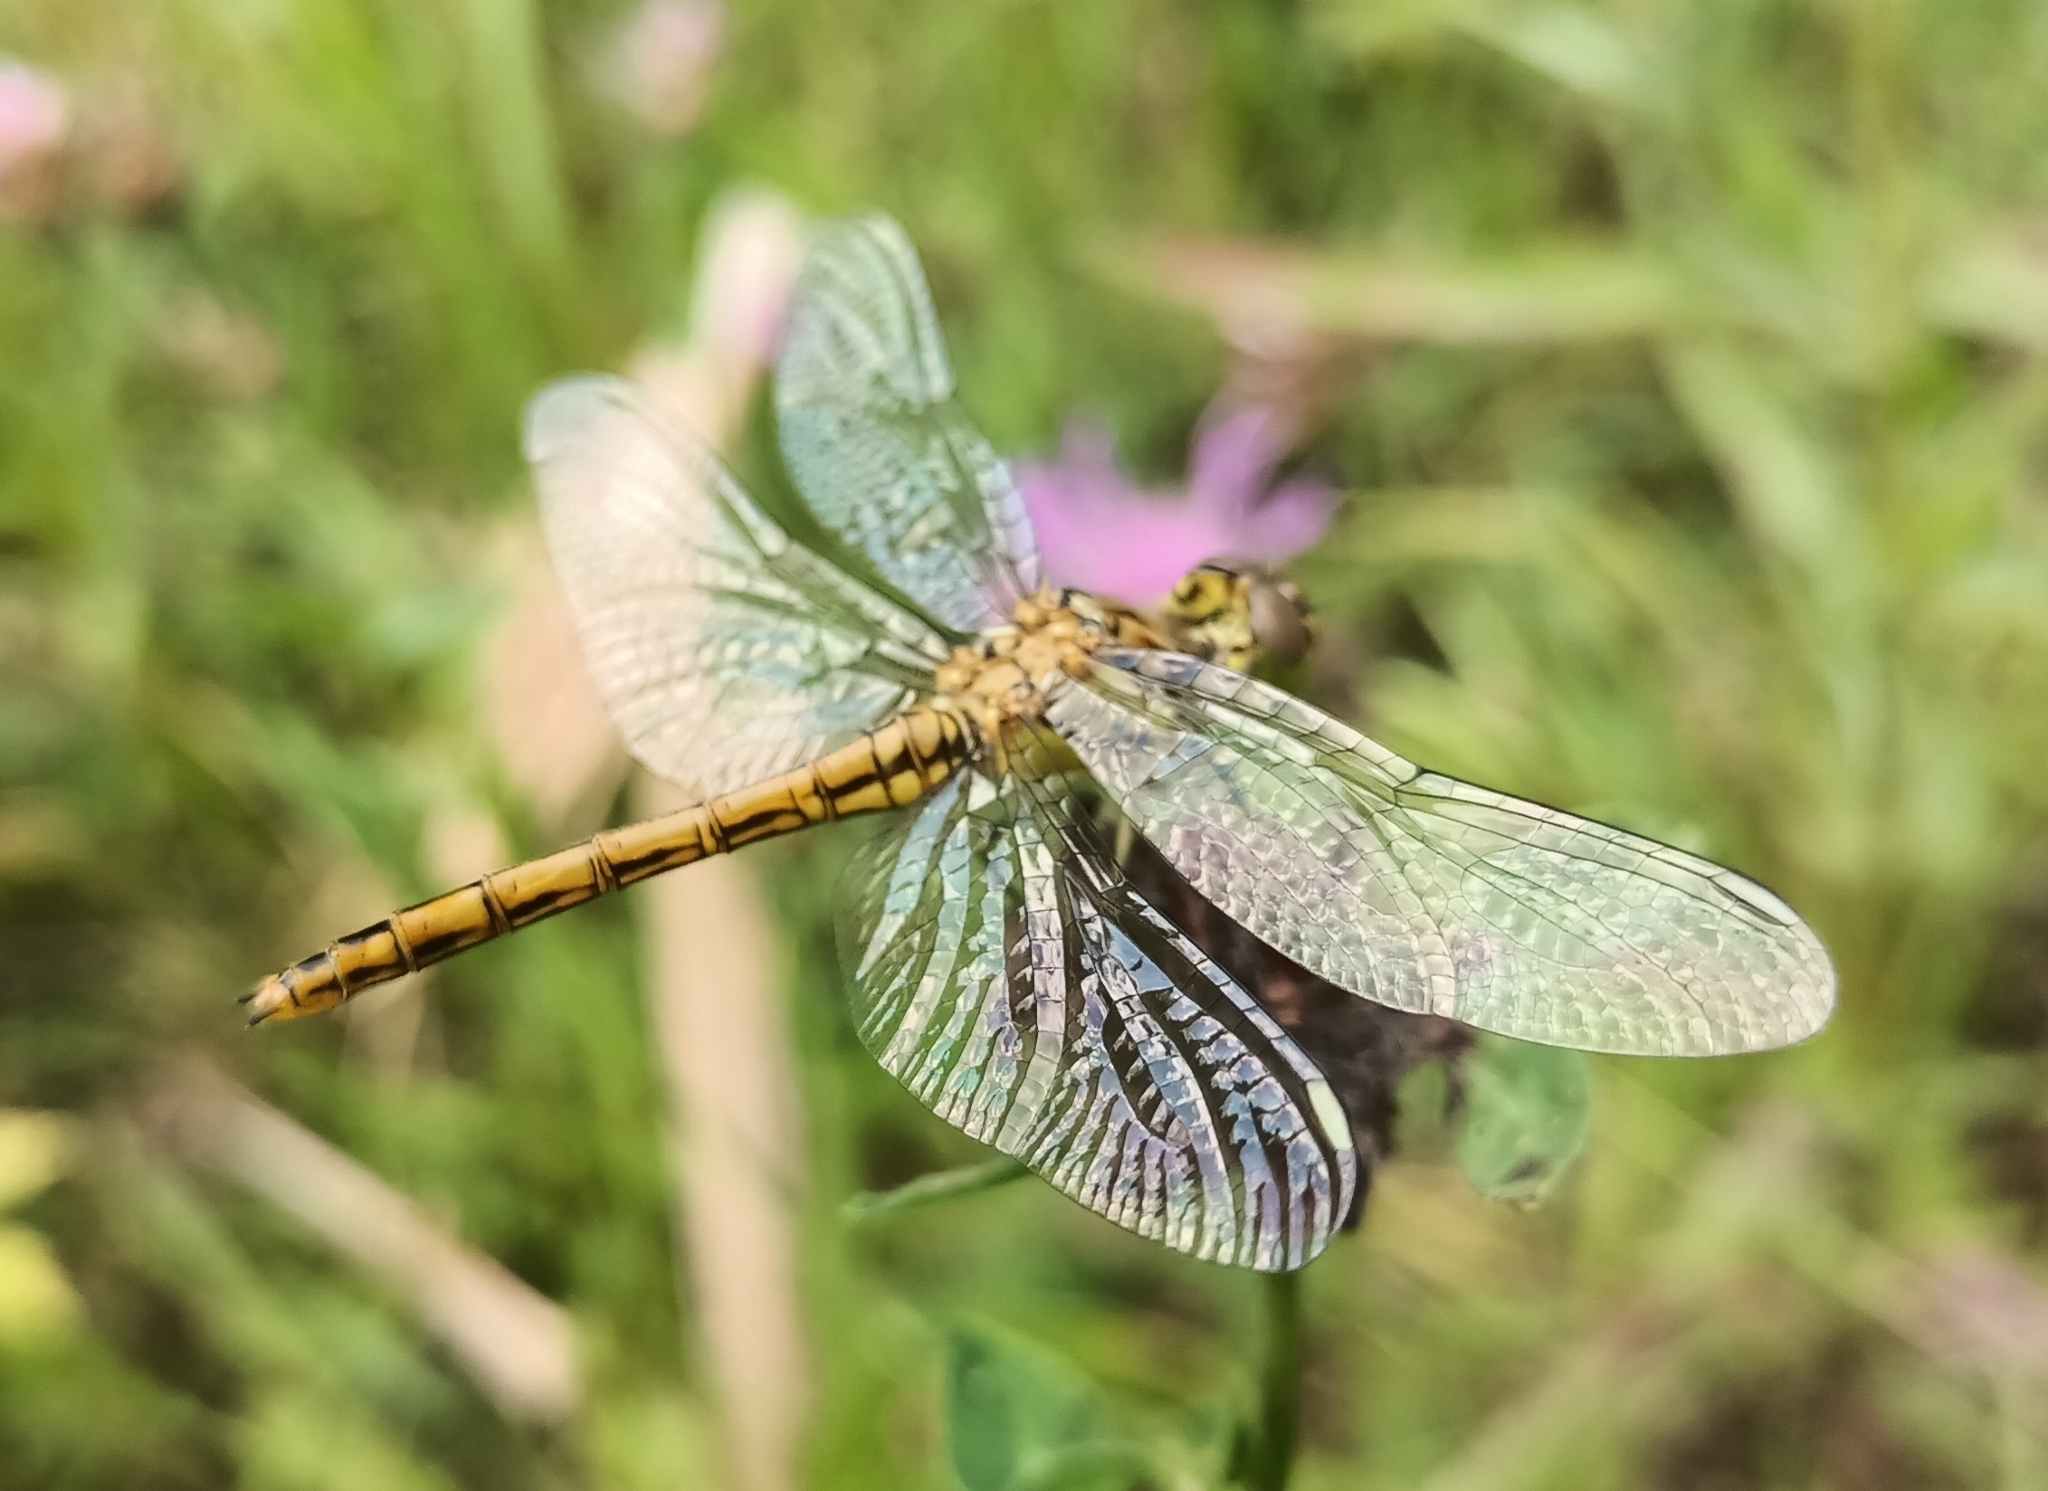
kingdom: Animalia
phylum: Arthropoda
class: Insecta
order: Odonata
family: Libellulidae
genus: Sympetrum
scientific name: Sympetrum vulgatum
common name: Vagrant darter
